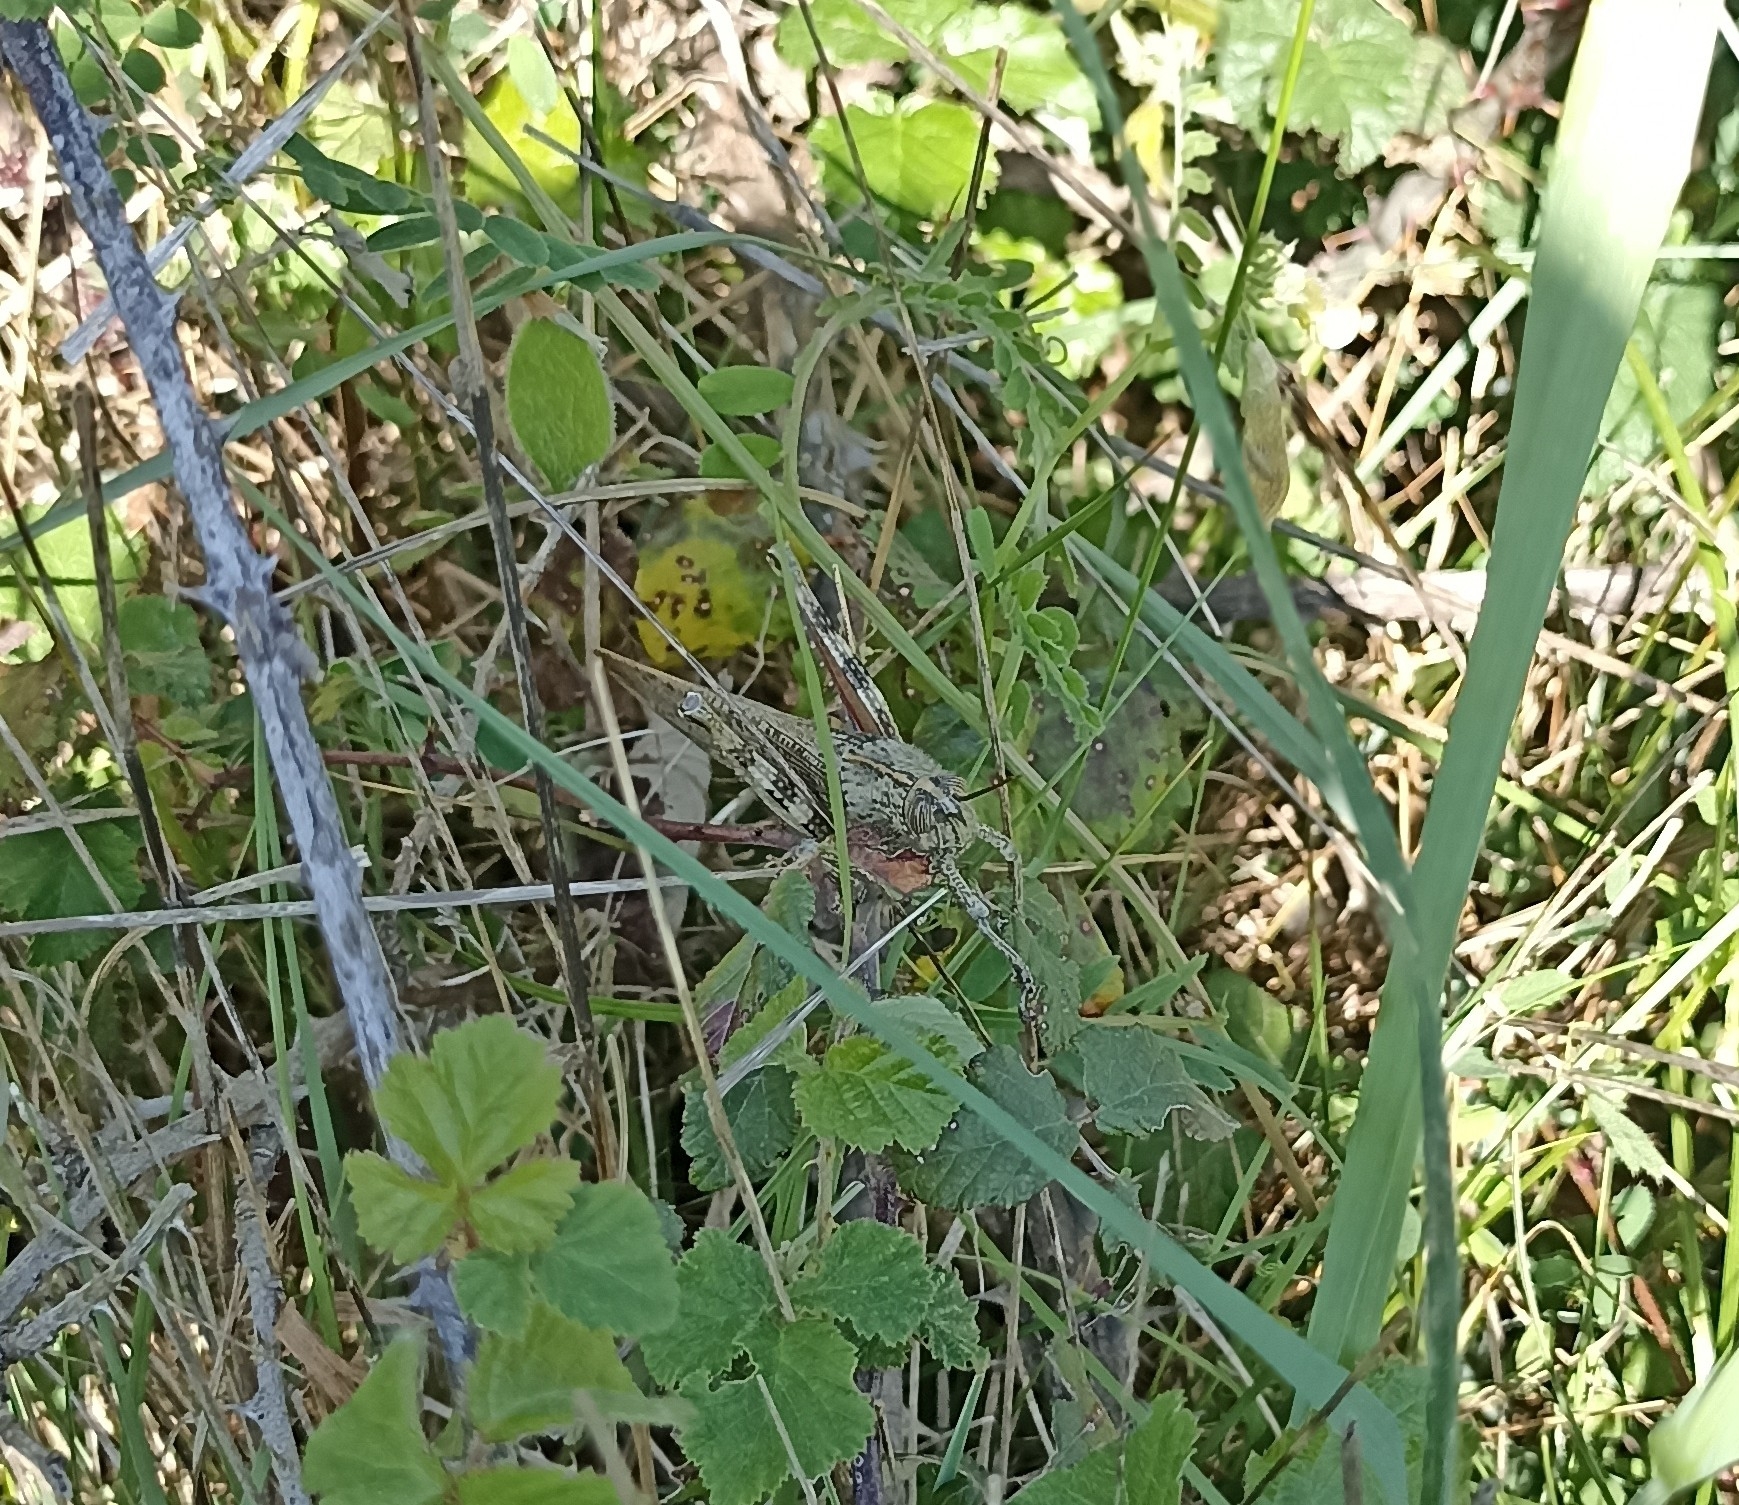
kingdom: Animalia
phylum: Arthropoda
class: Insecta
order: Orthoptera
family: Acrididae
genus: Anacridium
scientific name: Anacridium aegyptium
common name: Egyptian grasshopper
